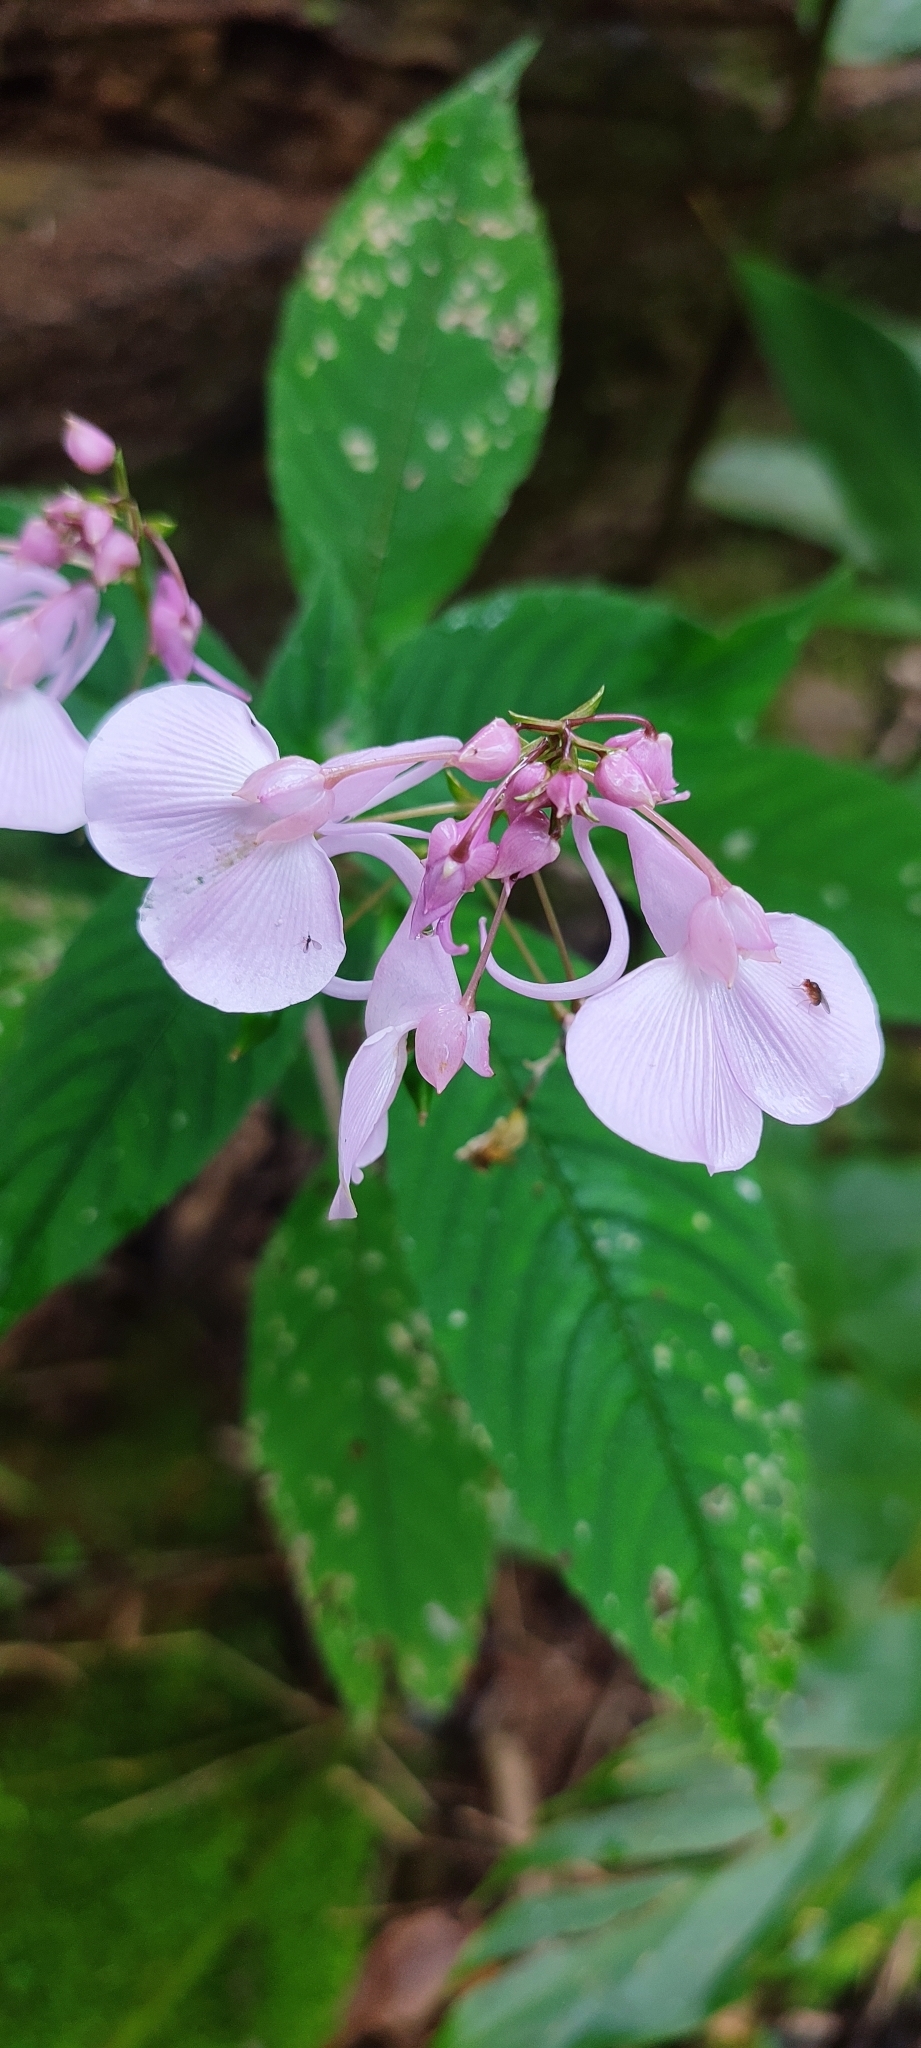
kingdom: Plantae
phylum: Tracheophyta
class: Magnoliopsida
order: Ericales
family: Balsaminaceae
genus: Impatiens
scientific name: Impatiens maculata
